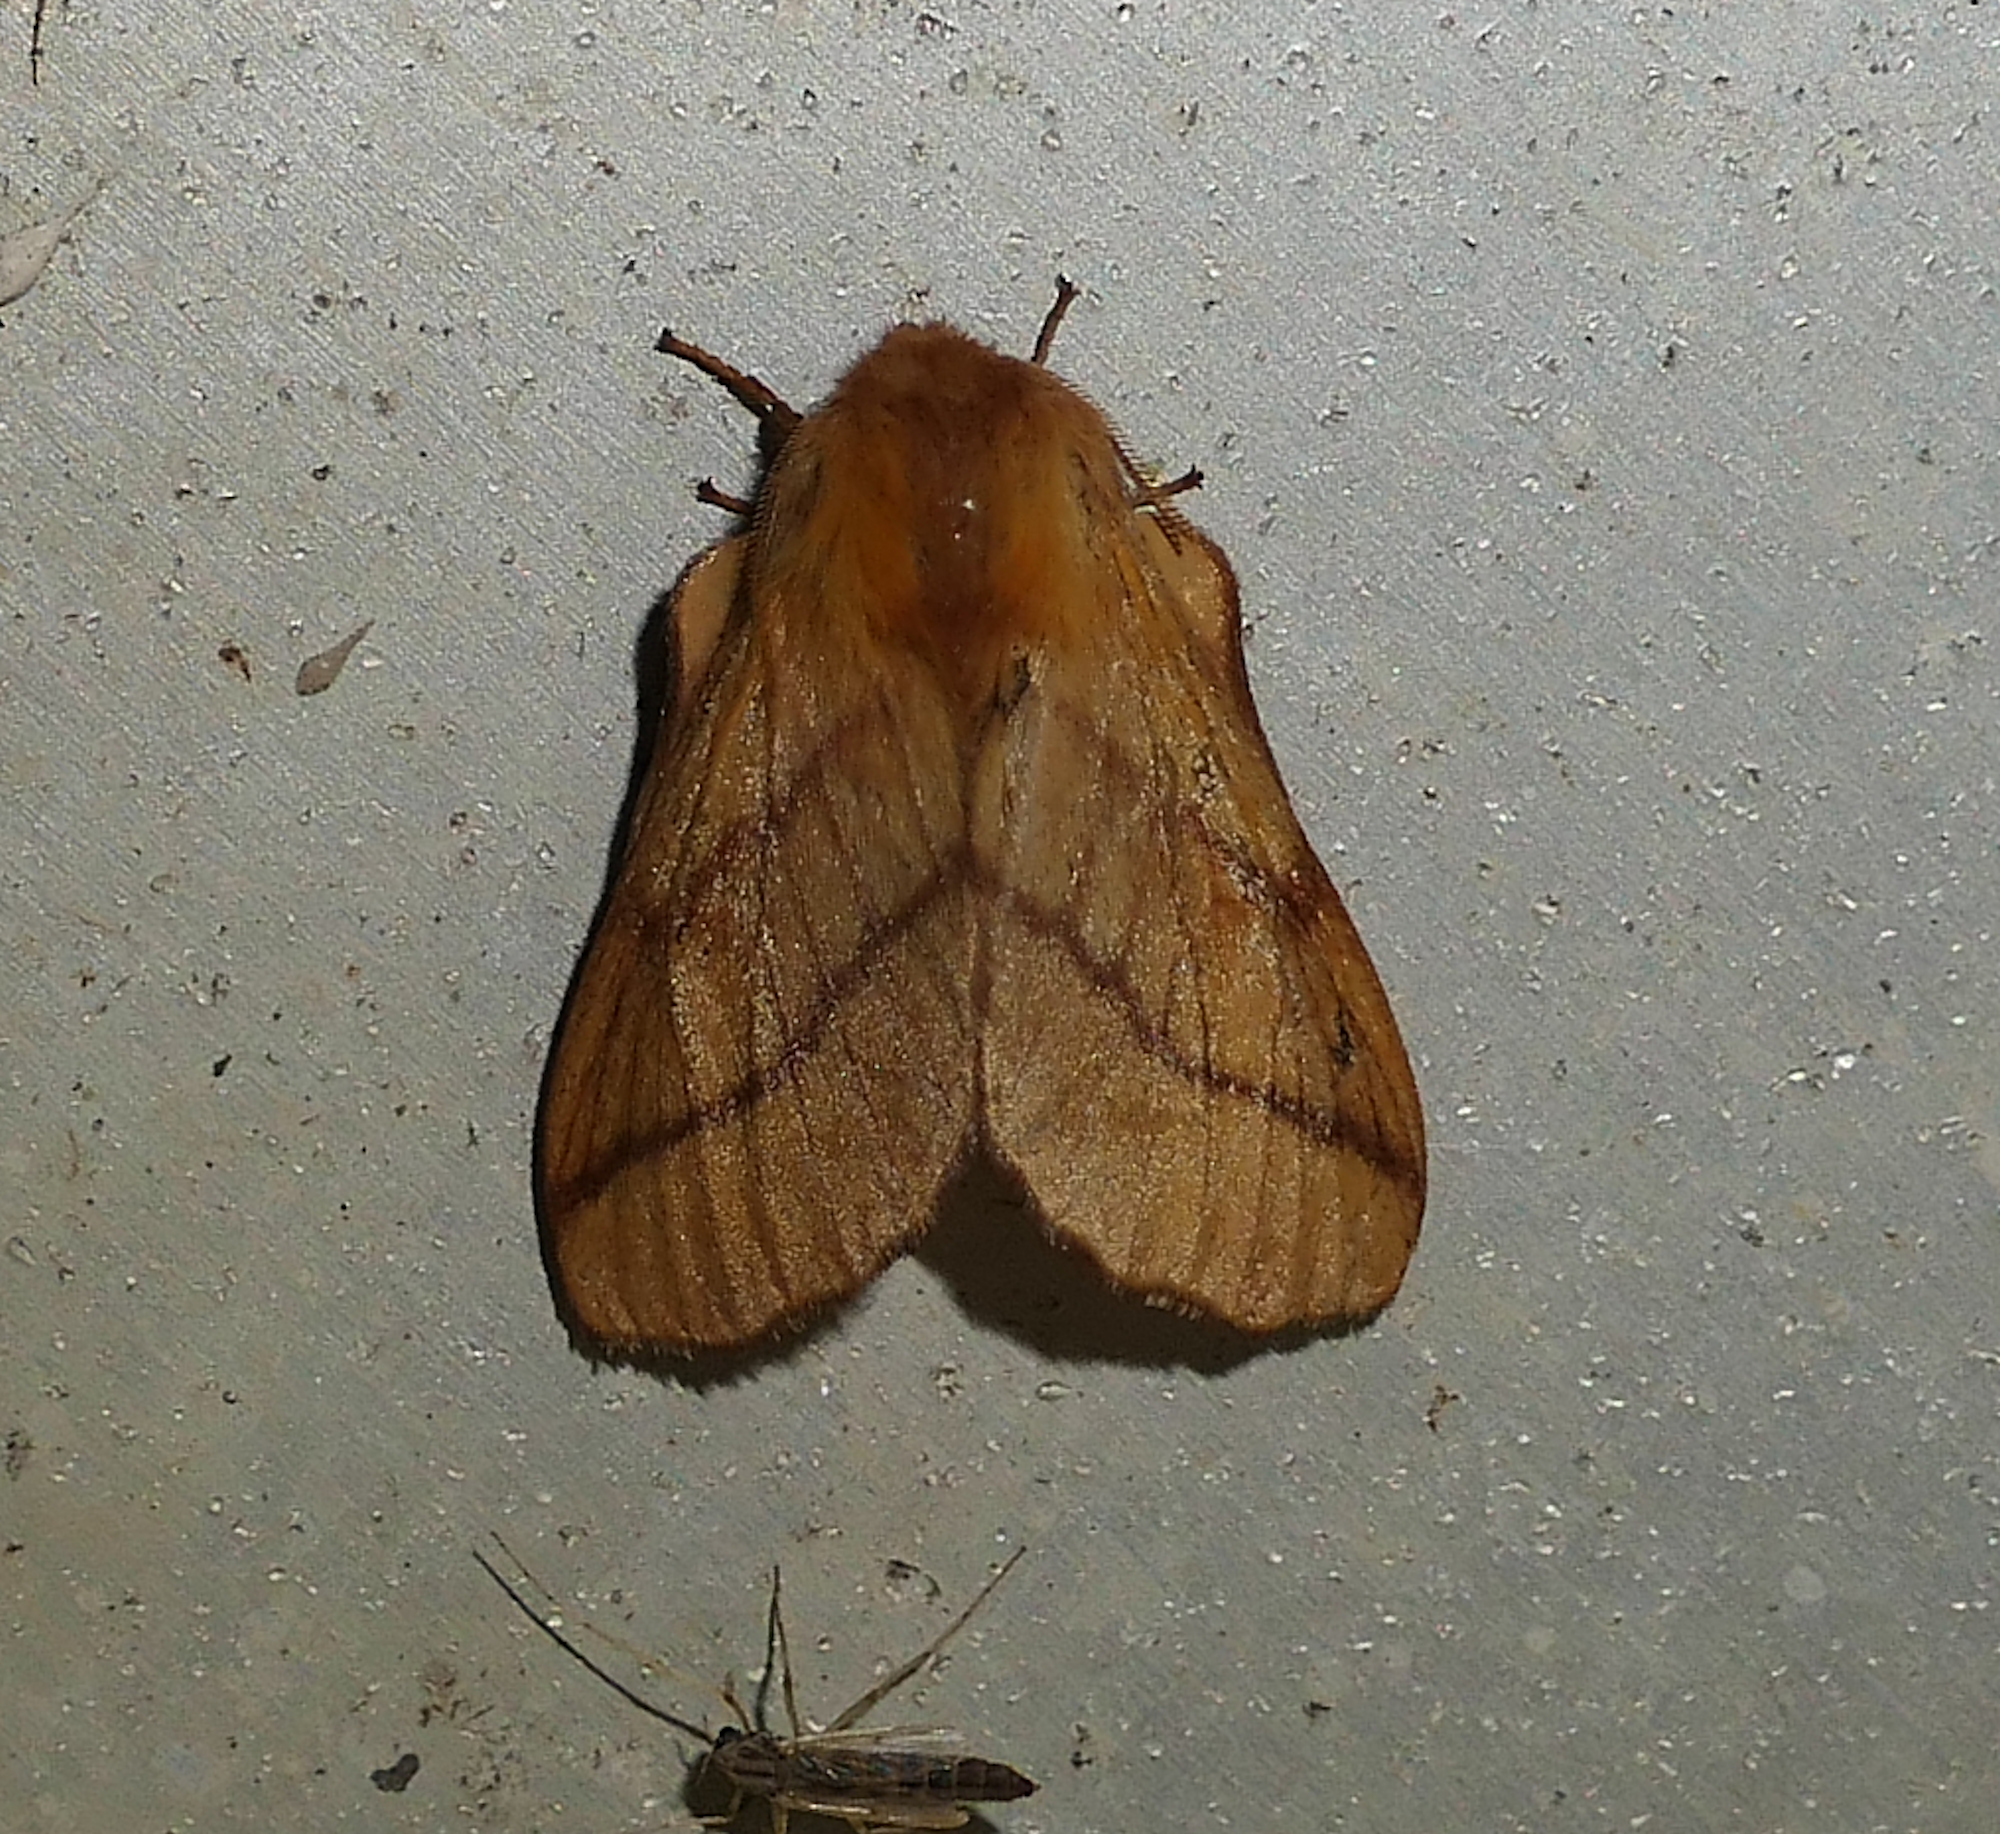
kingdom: Animalia
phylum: Arthropoda
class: Insecta
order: Lepidoptera
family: Lasiocampidae
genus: Malacosoma
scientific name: Malacosoma disstria
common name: Forest tent caterpillar
